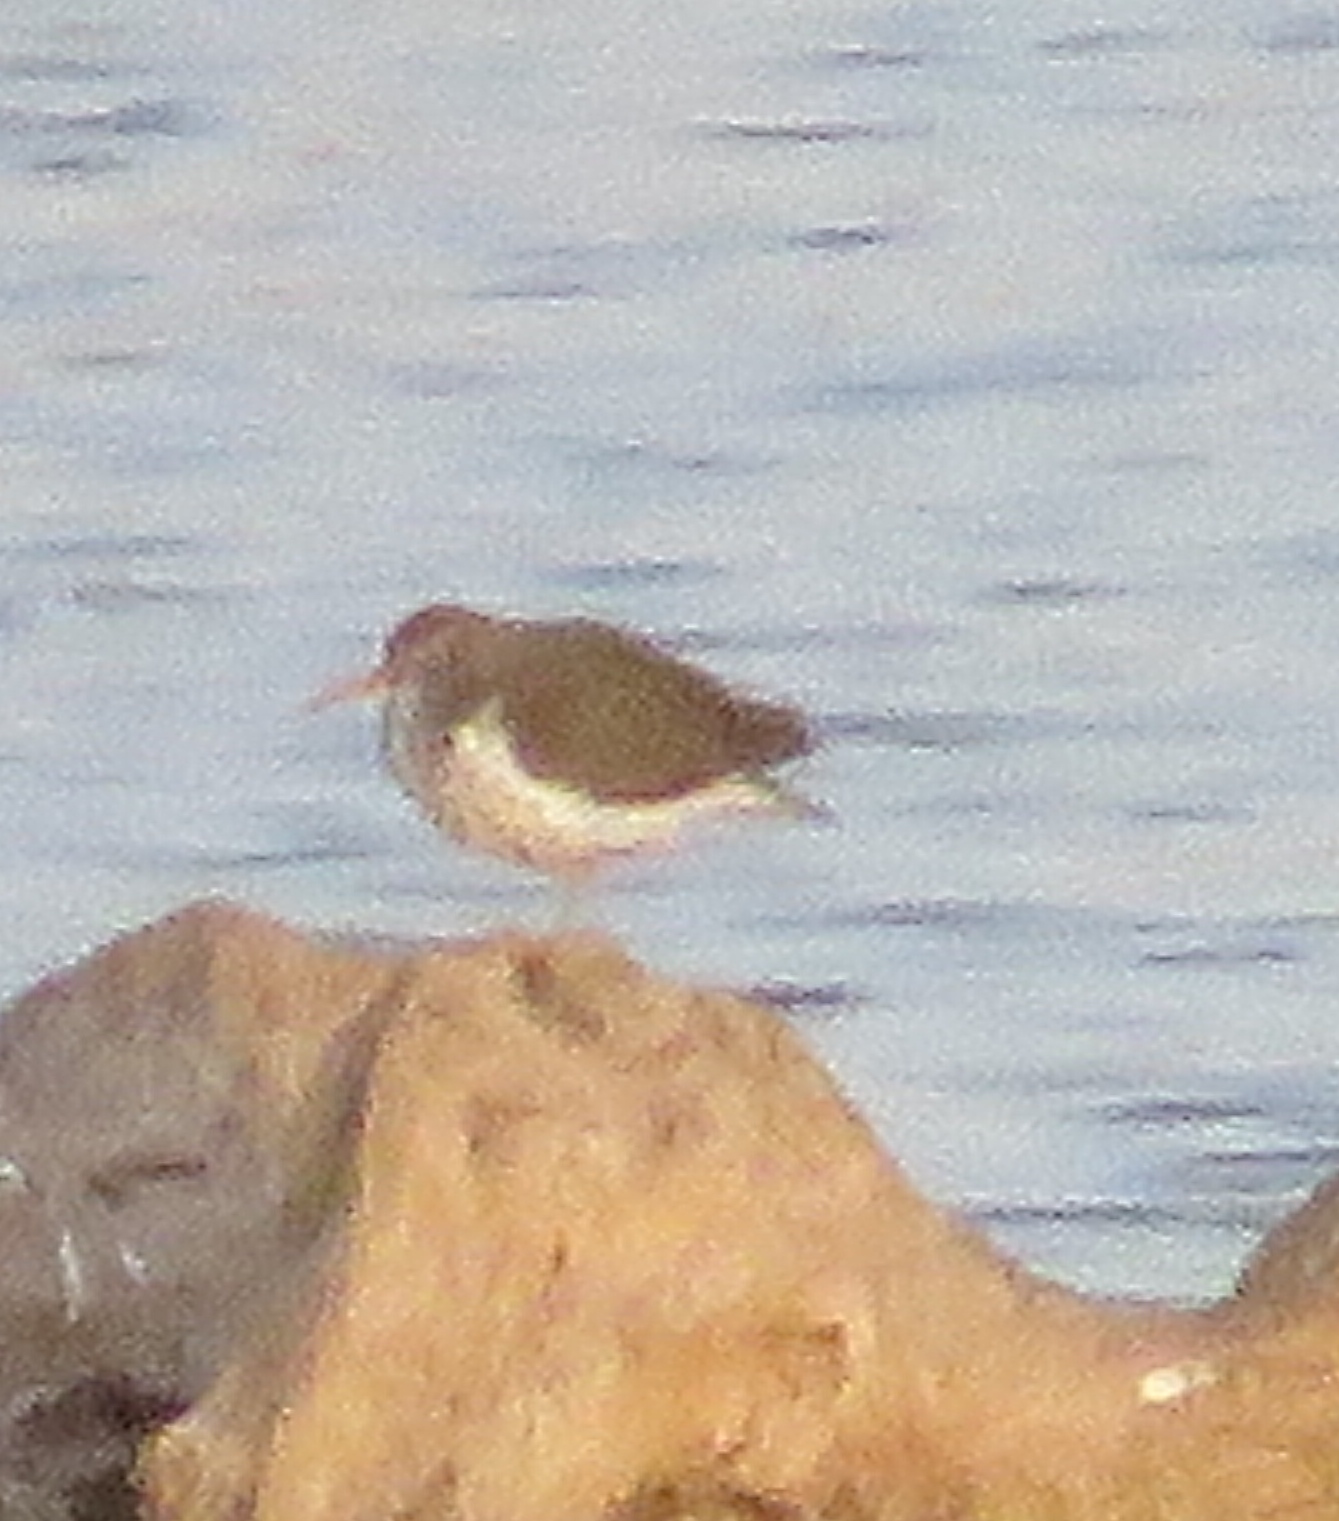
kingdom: Animalia
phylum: Chordata
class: Aves
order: Charadriiformes
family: Scolopacidae
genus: Actitis
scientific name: Actitis macularius
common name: Spotted sandpiper
